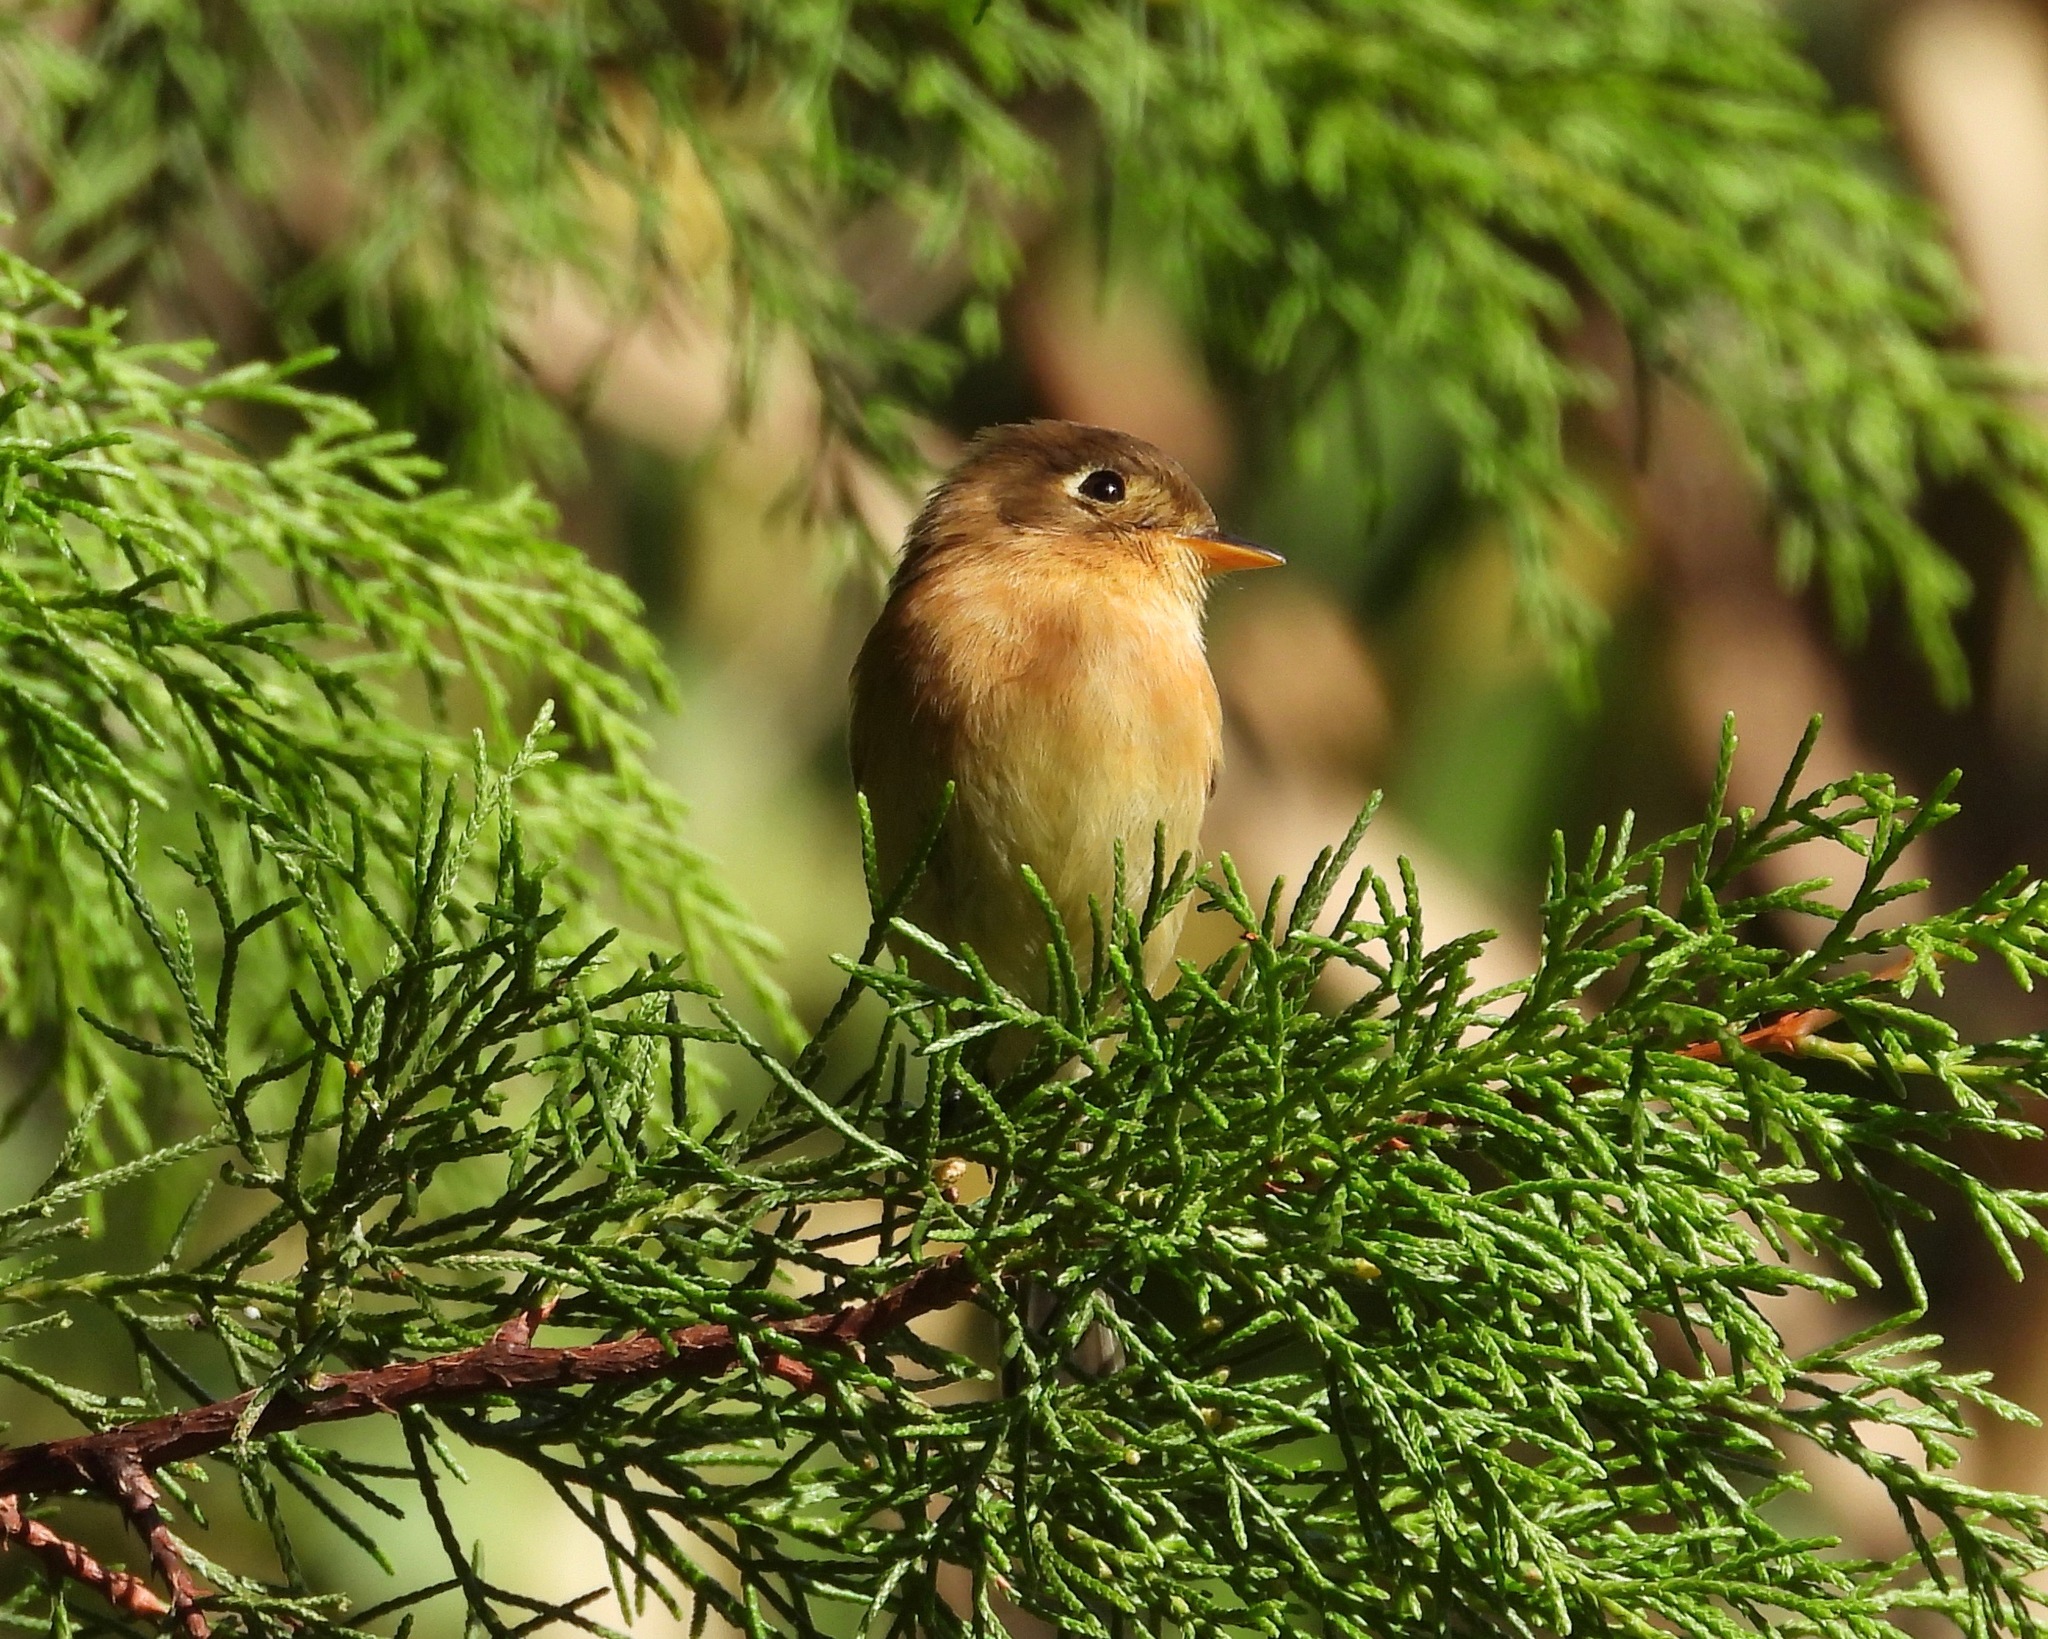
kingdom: Animalia
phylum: Chordata
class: Aves
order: Passeriformes
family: Tyrannidae
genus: Empidonax
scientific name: Empidonax fulvifrons
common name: Buff-breasted flycatcher
